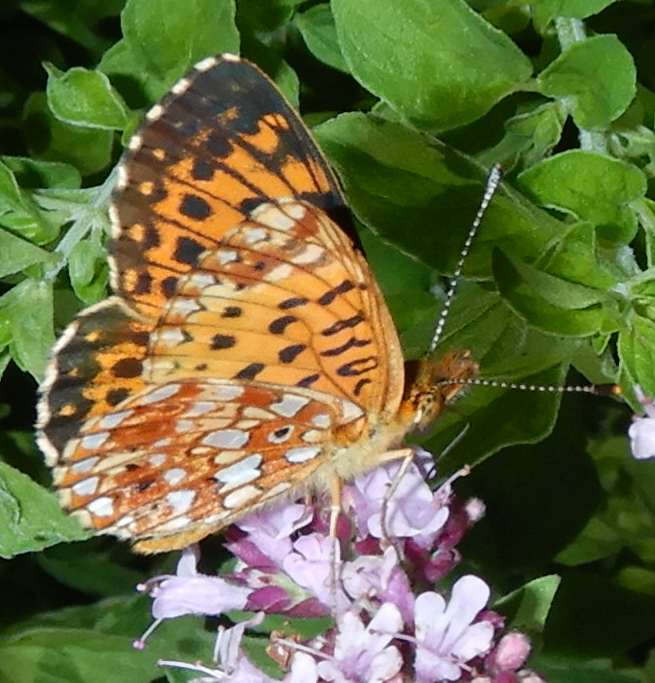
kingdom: Animalia
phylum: Arthropoda
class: Insecta
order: Lepidoptera
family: Nymphalidae
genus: Boloria
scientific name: Boloria
